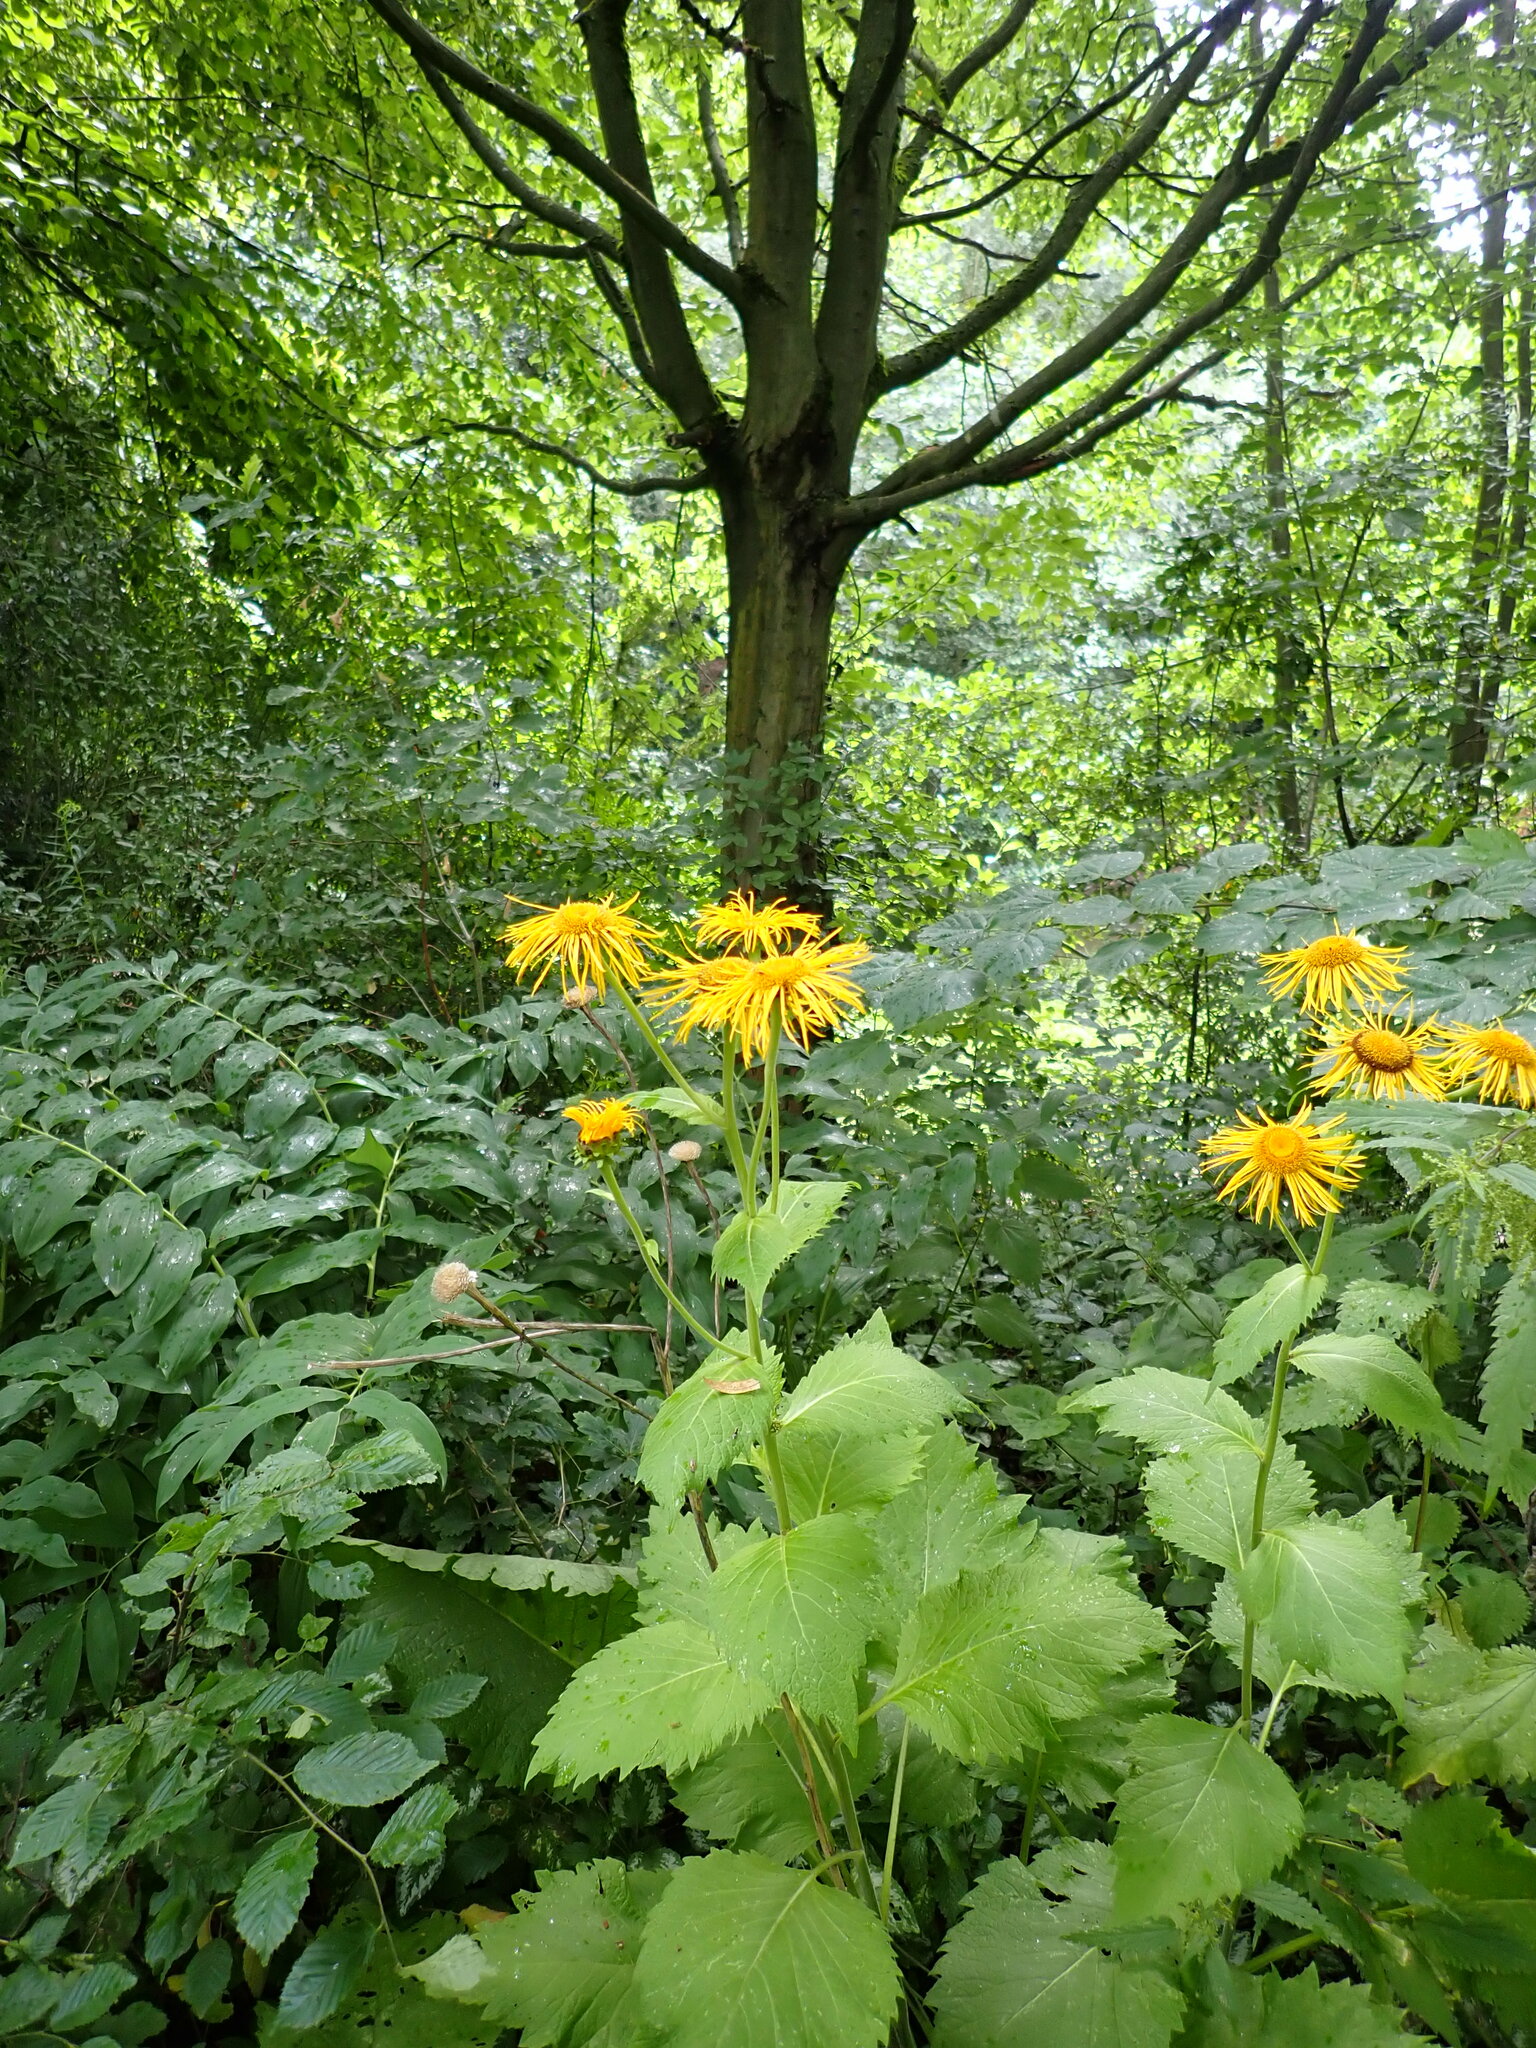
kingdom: Plantae
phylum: Tracheophyta
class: Magnoliopsida
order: Asterales
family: Asteraceae
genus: Telekia
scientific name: Telekia speciosa
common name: Yellow oxeye
